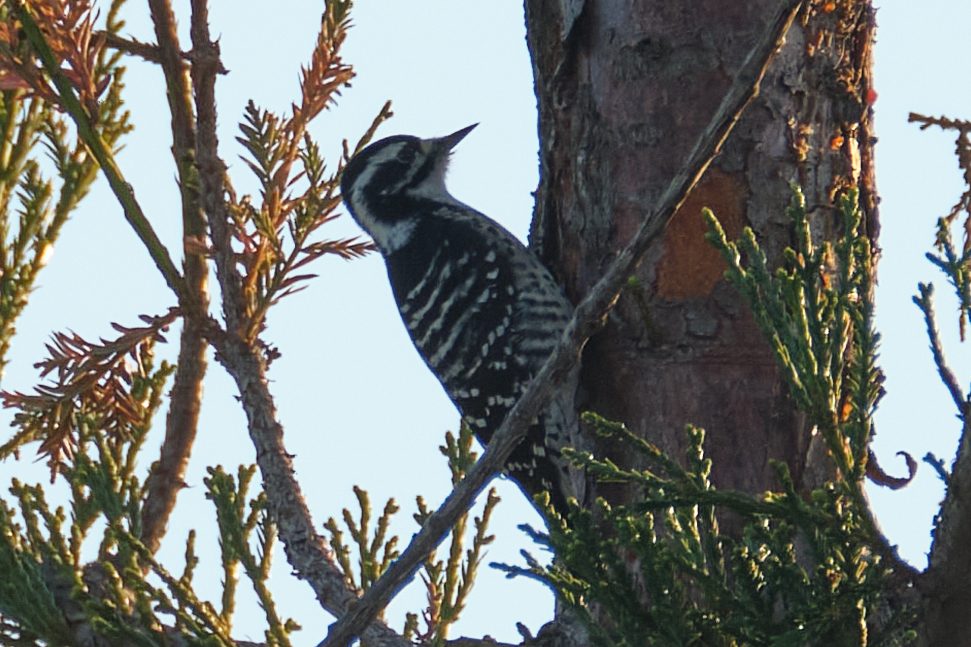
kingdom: Animalia
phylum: Chordata
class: Aves
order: Piciformes
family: Picidae
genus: Dryobates
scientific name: Dryobates nuttallii
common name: Nuttall's woodpecker
